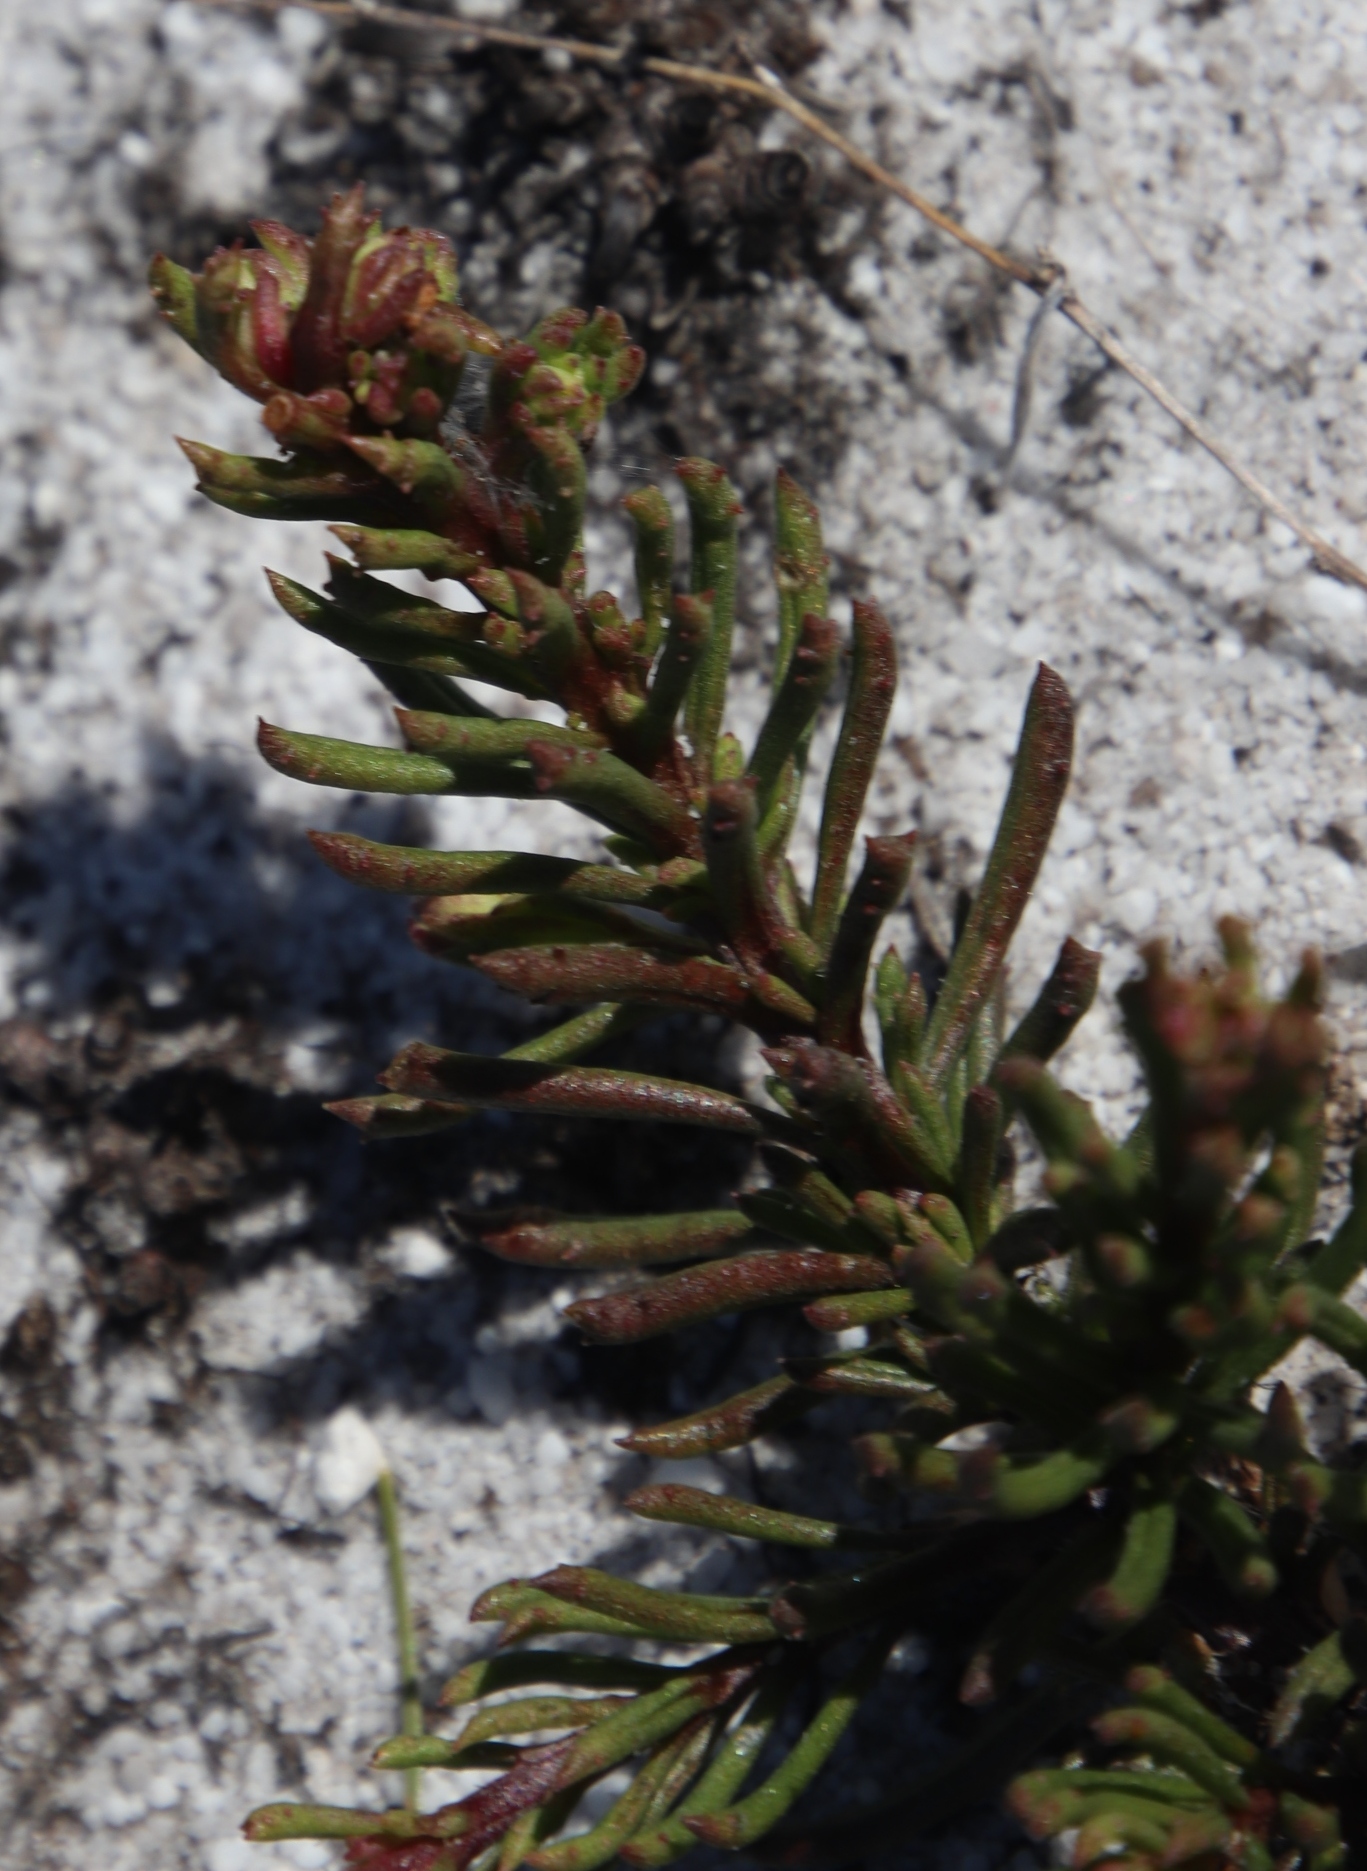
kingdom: Plantae
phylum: Tracheophyta
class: Magnoliopsida
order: Lamiales
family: Scrophulariaceae
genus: Pseudoselago
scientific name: Pseudoselago spuria
